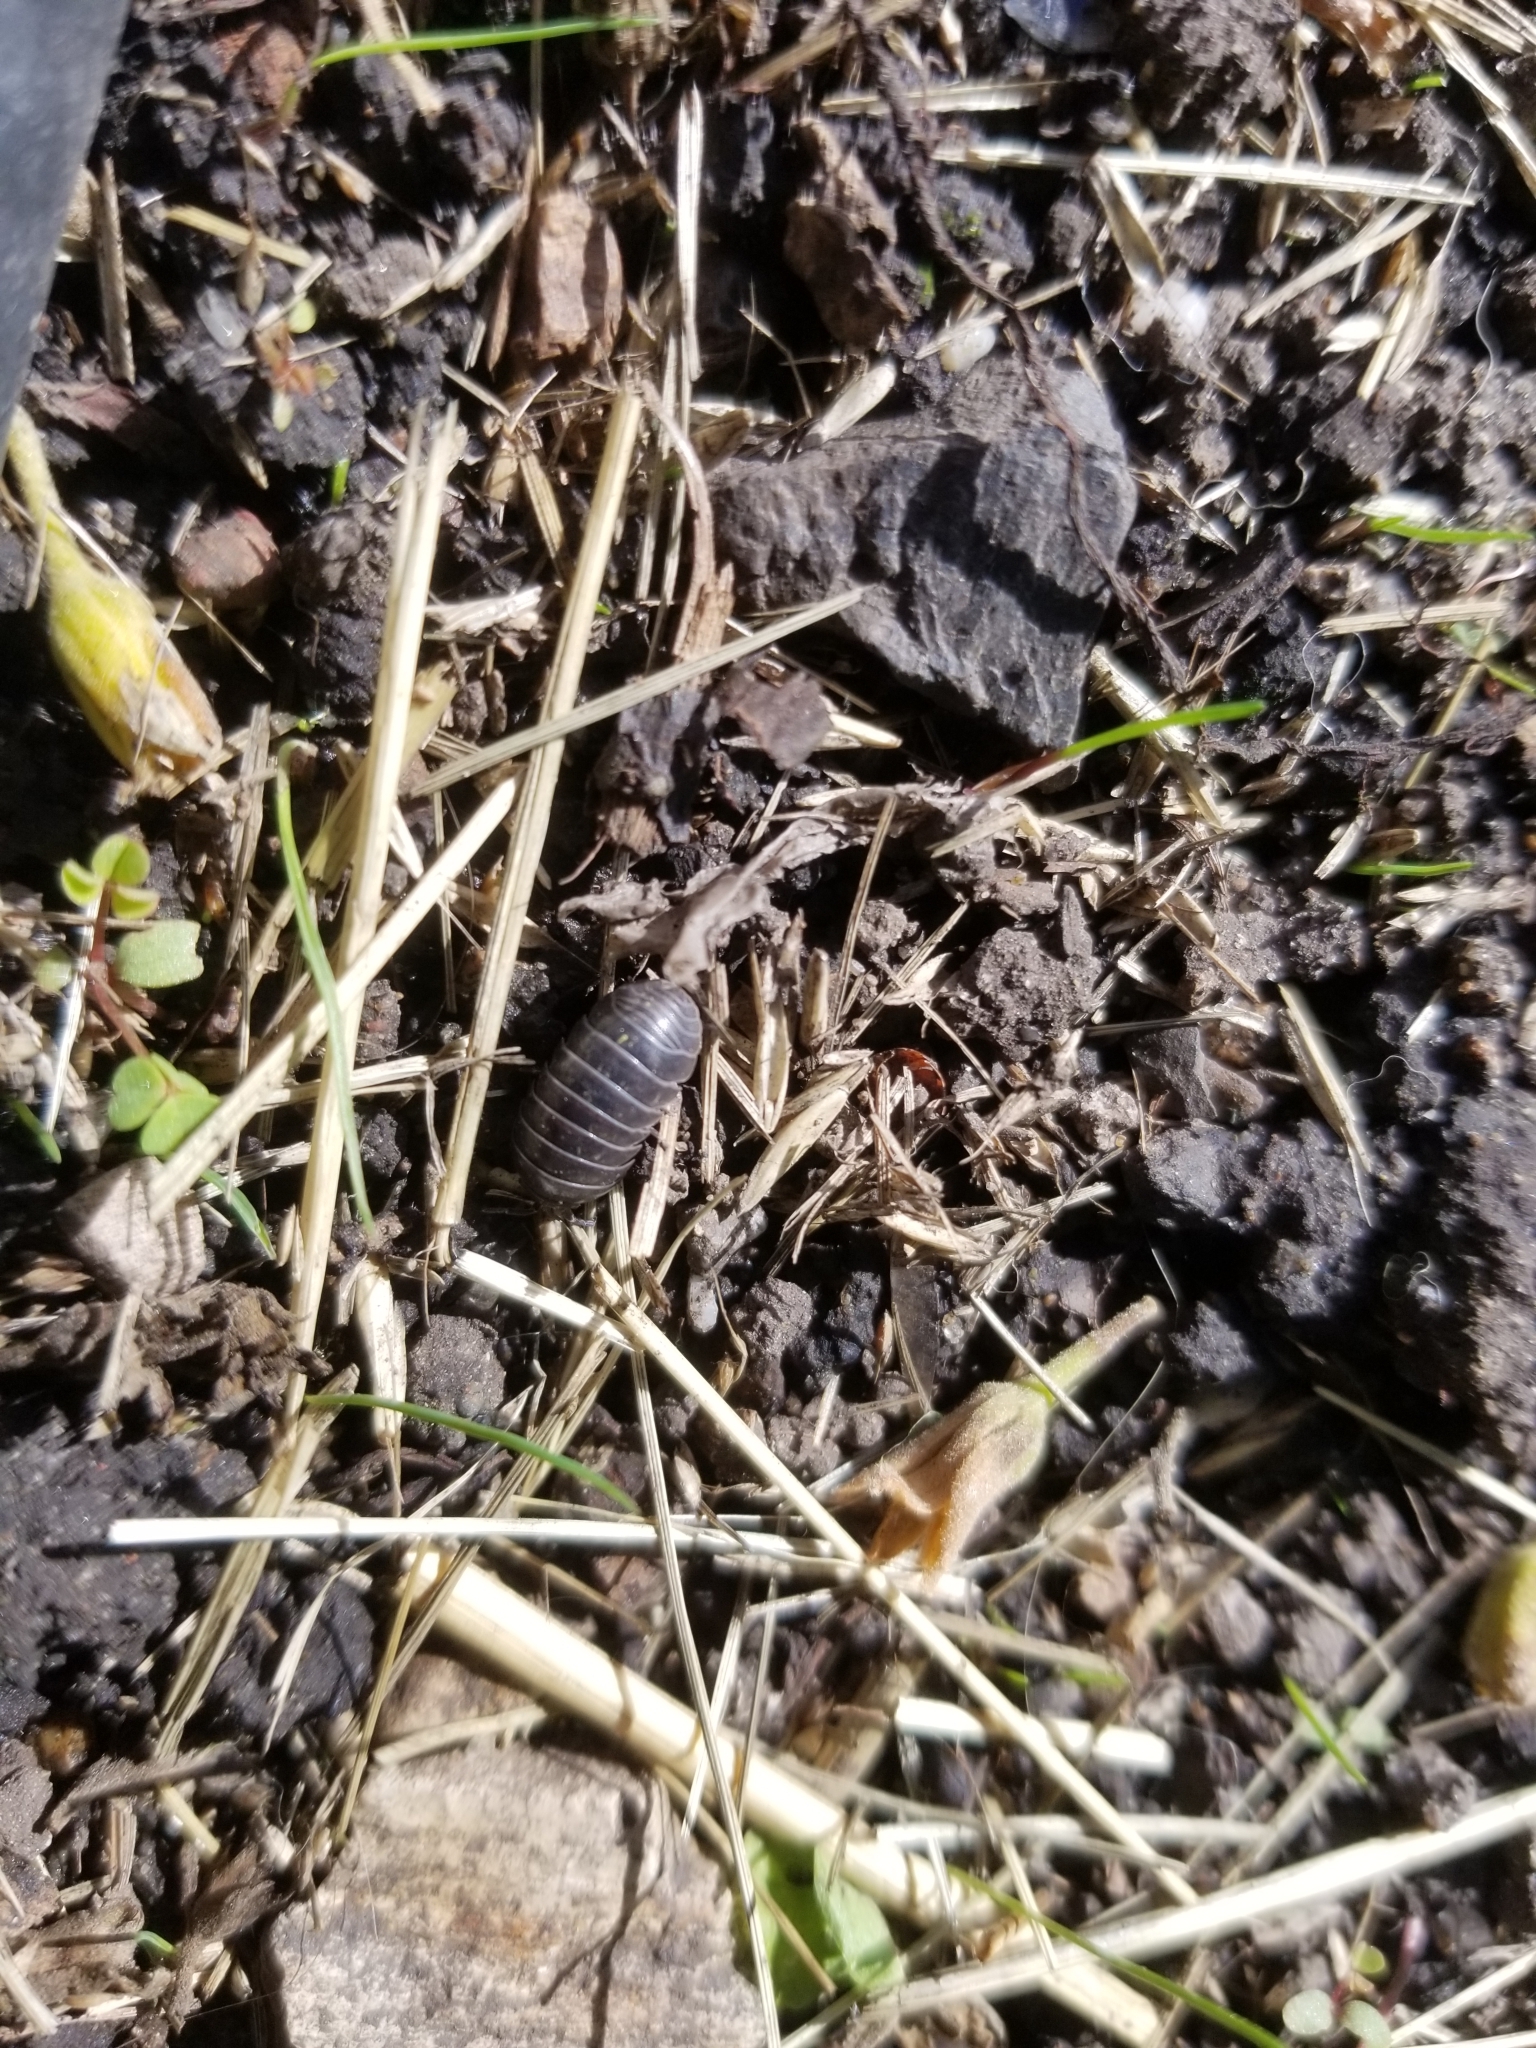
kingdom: Animalia
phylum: Arthropoda
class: Malacostraca
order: Isopoda
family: Armadillidiidae
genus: Armadillidium
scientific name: Armadillidium vulgare
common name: Common pill woodlouse
